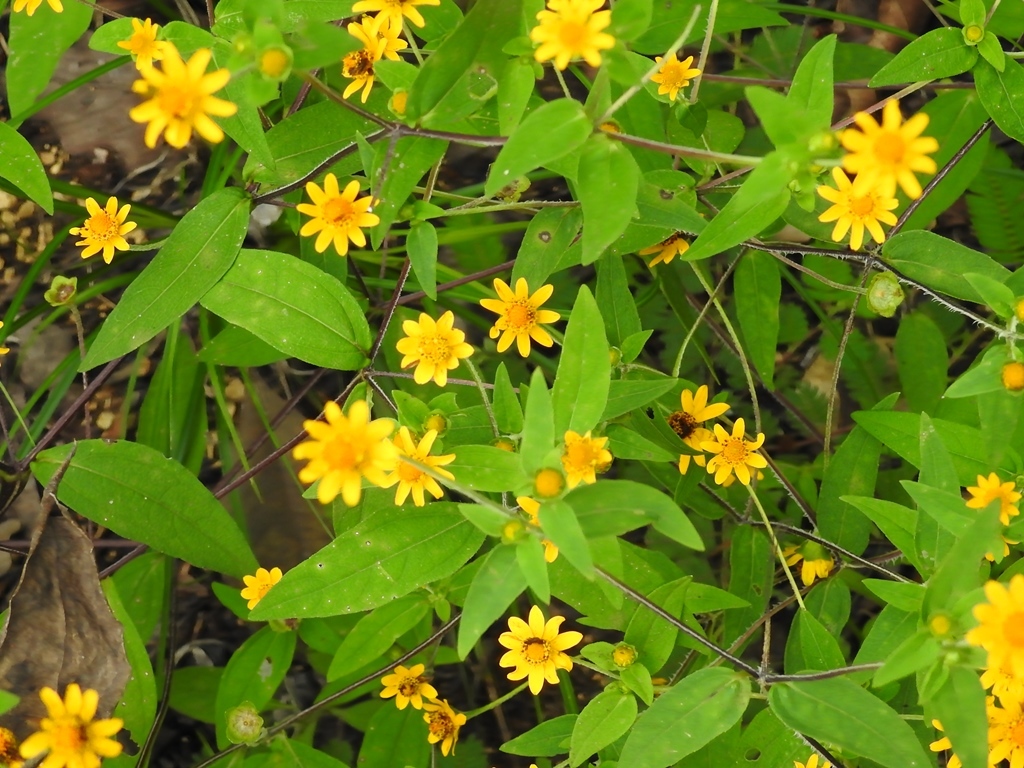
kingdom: Plantae
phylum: Tracheophyta
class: Magnoliopsida
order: Asterales
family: Asteraceae
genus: Melampodium
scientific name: Melampodium divaricatum
